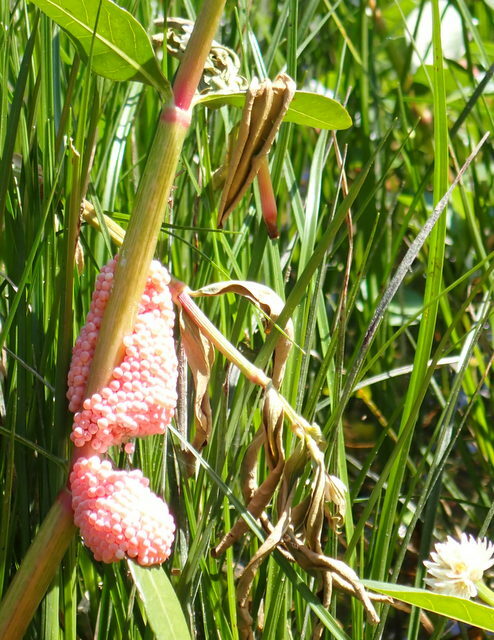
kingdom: Animalia
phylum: Mollusca
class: Gastropoda
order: Architaenioglossa
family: Ampullariidae
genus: Pomacea
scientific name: Pomacea maculata
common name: Giant applesnail
